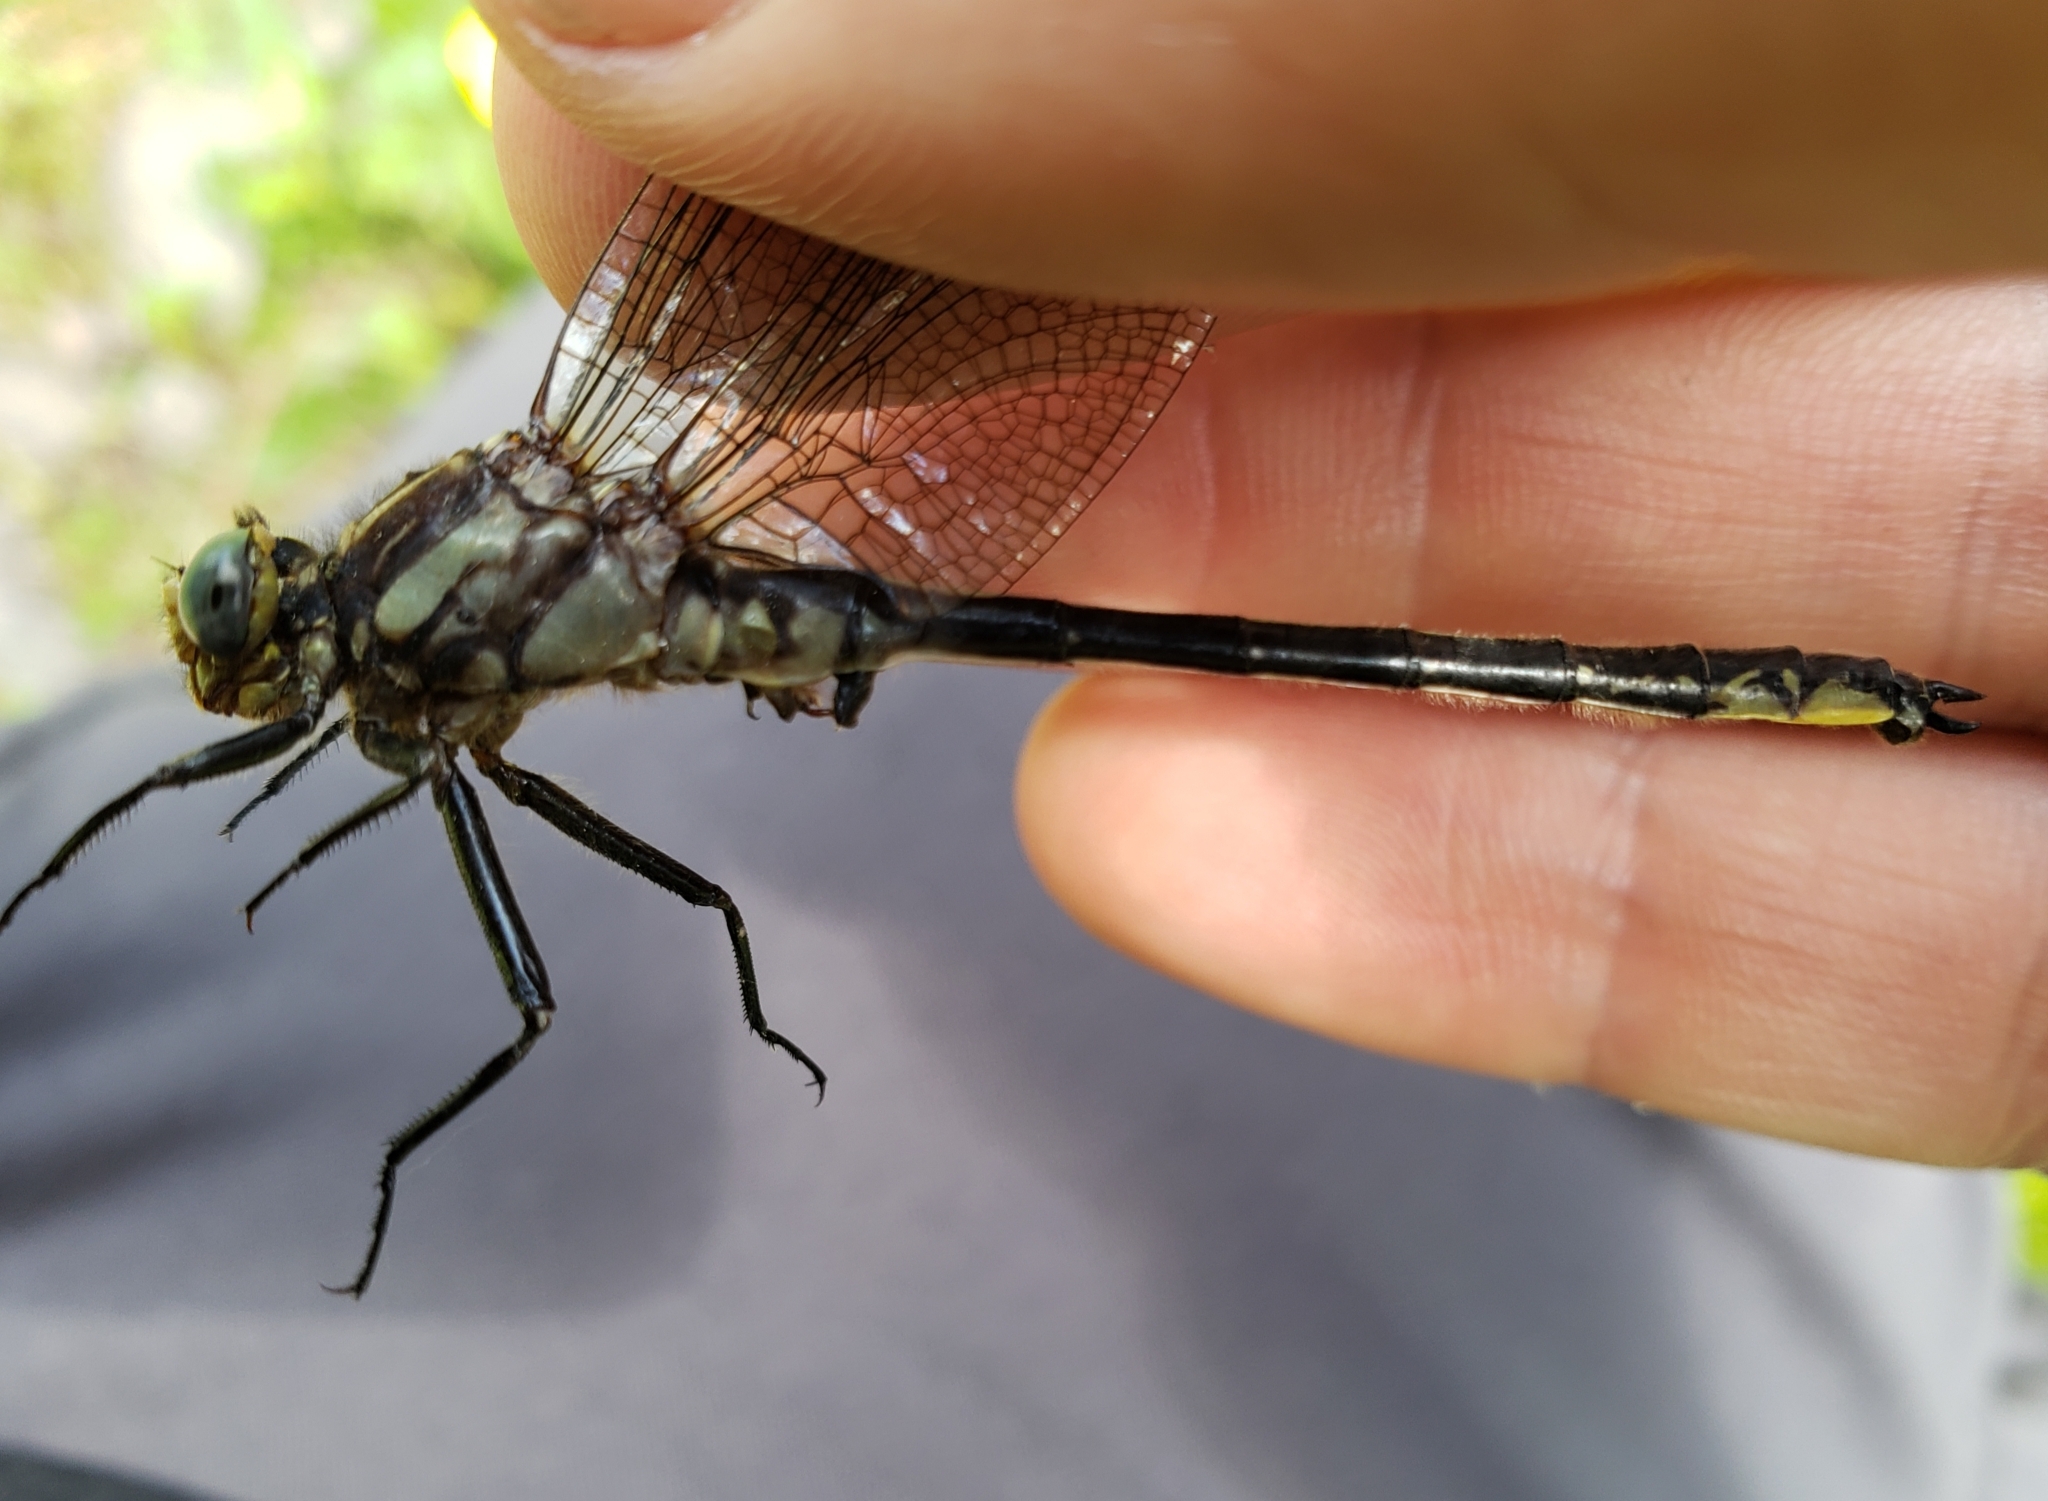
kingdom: Animalia
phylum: Arthropoda
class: Insecta
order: Odonata
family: Gomphidae
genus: Phanogomphus
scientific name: Phanogomphus descriptus
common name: Harpoon clubtail
